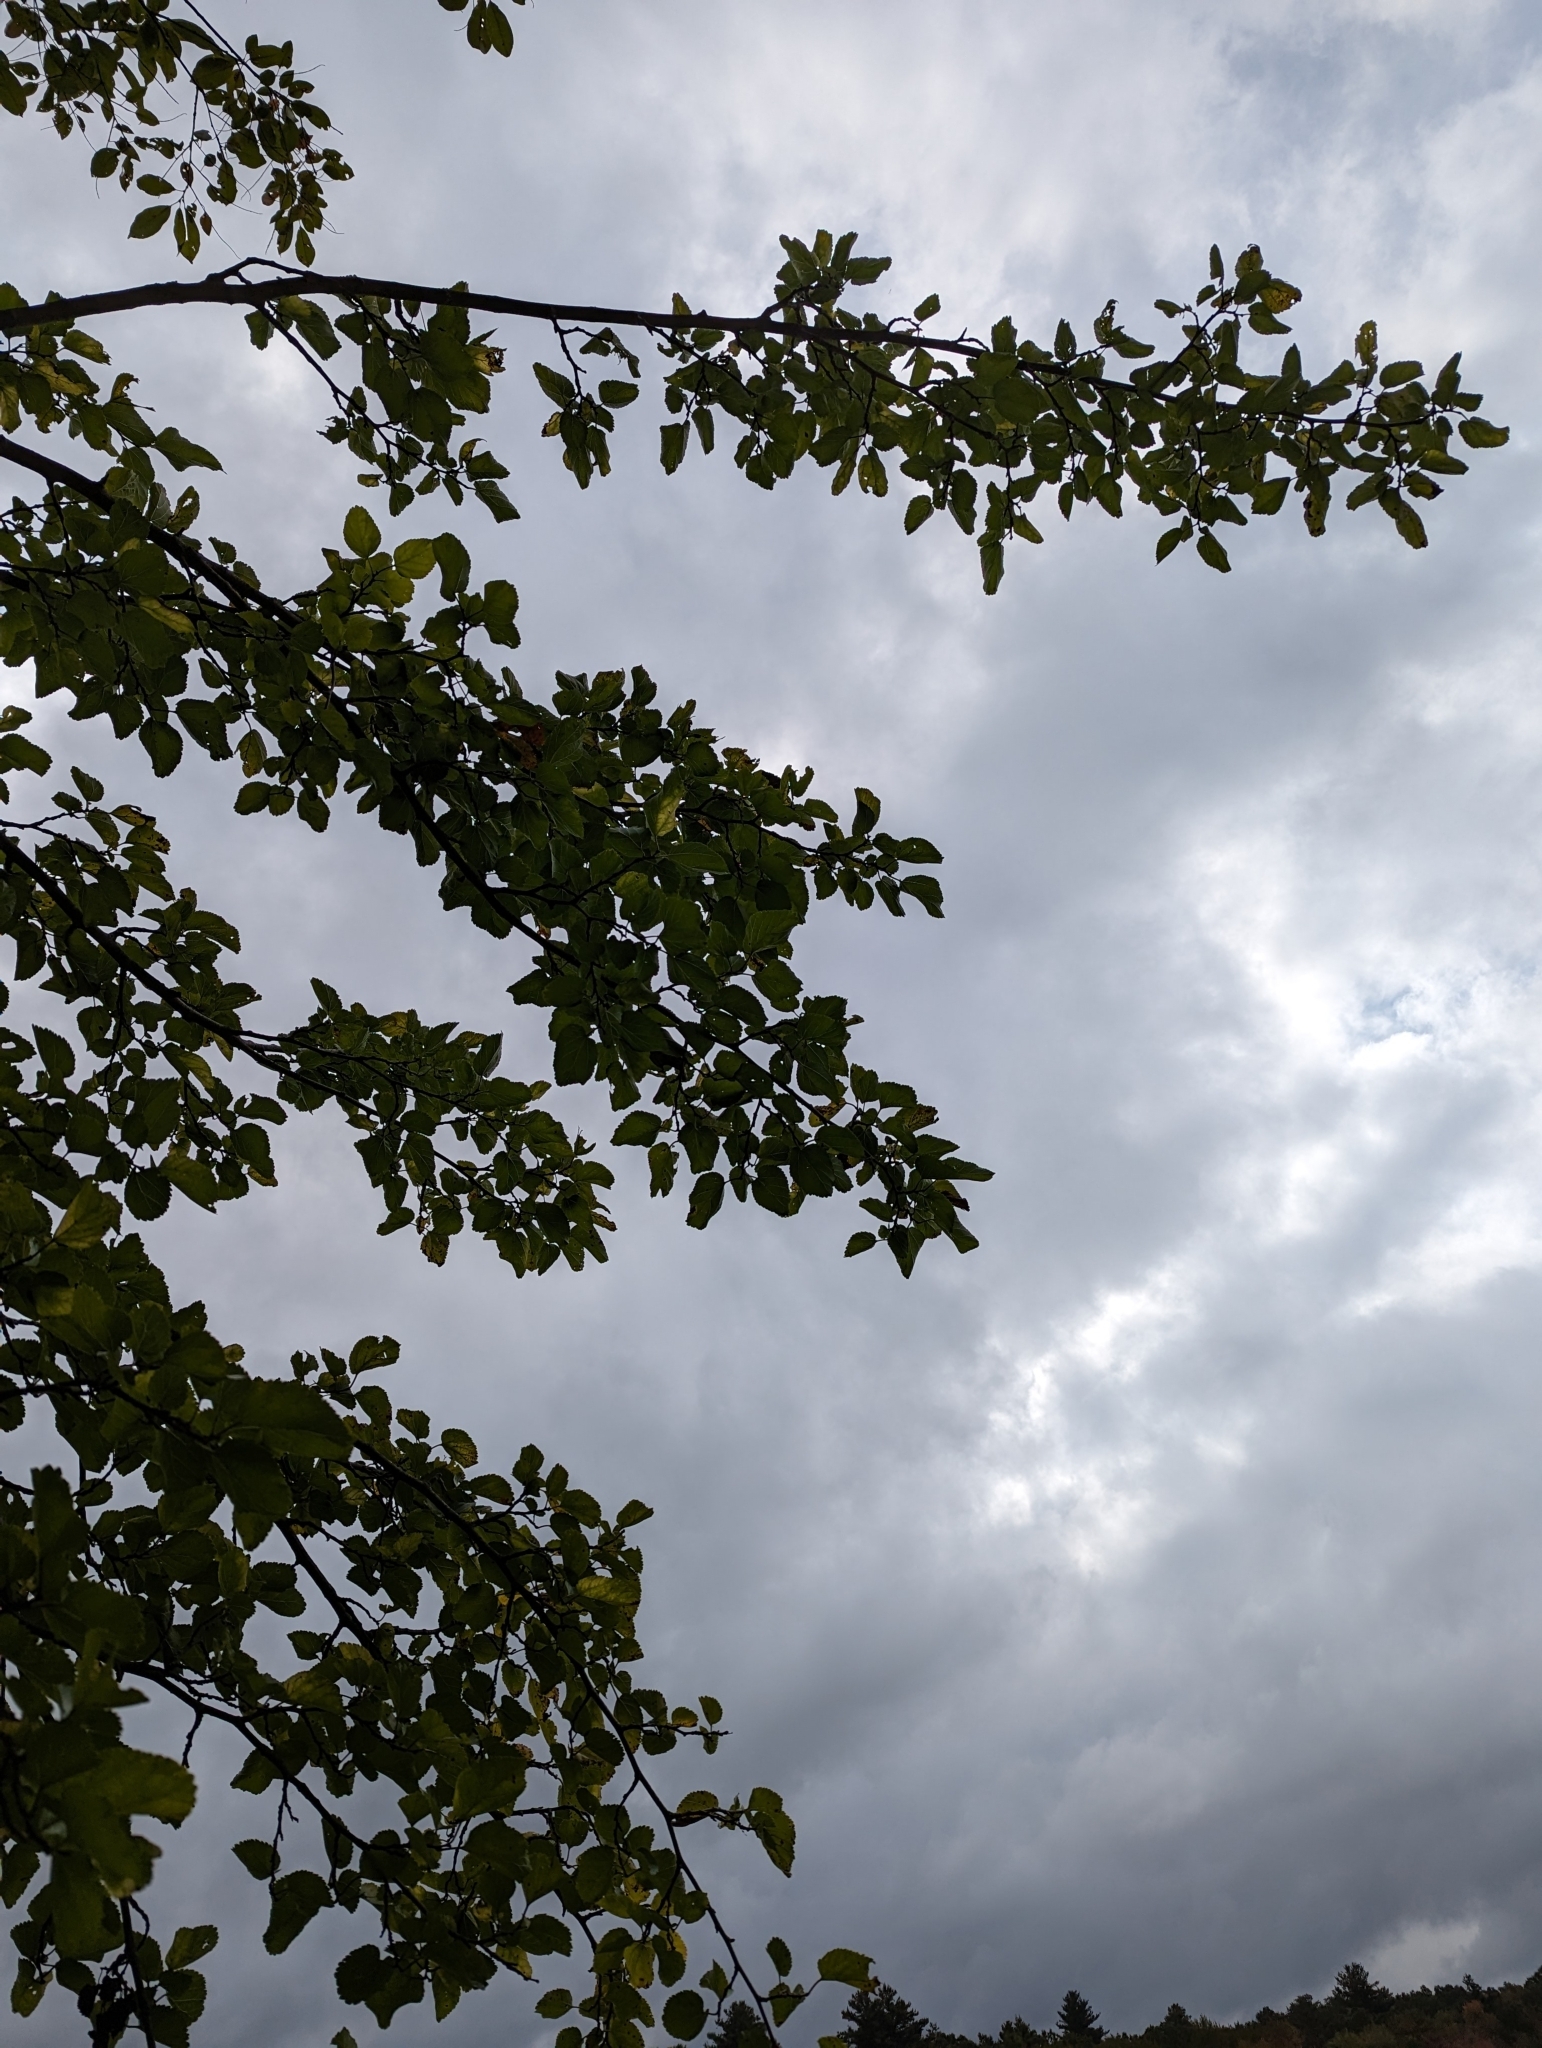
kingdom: Plantae
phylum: Tracheophyta
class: Magnoliopsida
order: Rosales
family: Moraceae
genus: Morus
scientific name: Morus alba
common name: White mulberry
